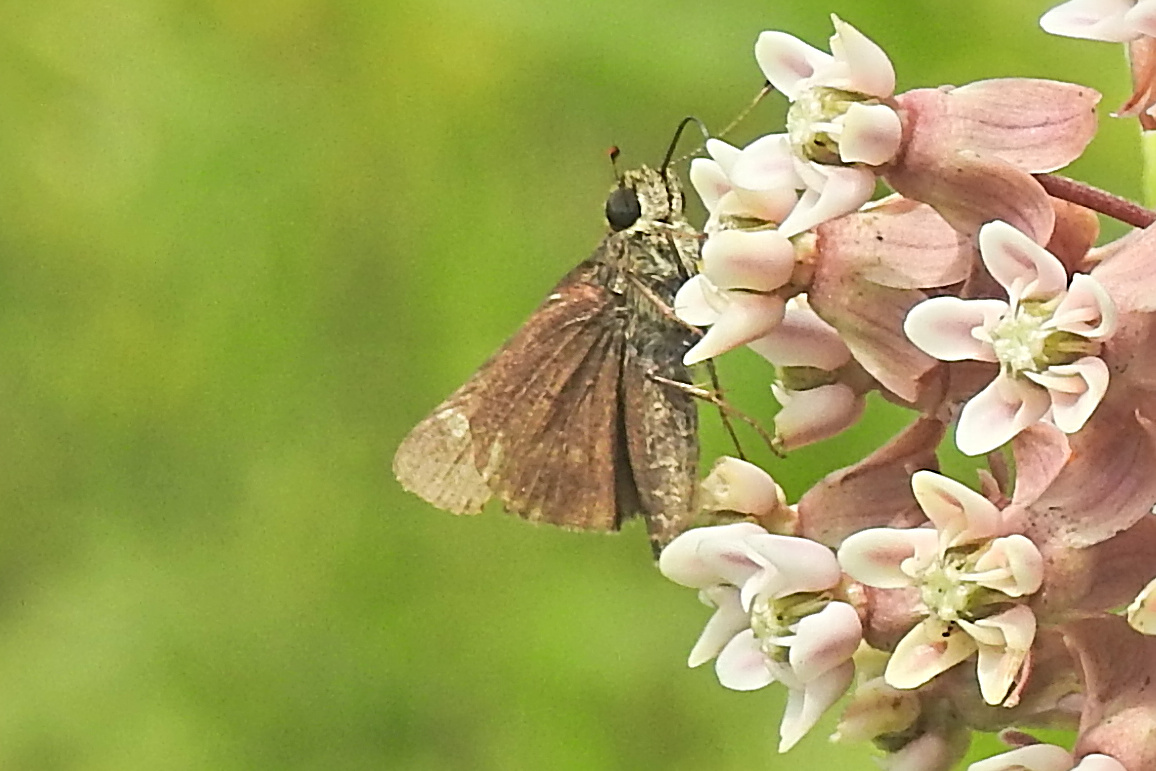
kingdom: Animalia
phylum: Arthropoda
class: Insecta
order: Lepidoptera
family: Hesperiidae
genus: Vernia
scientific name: Vernia verna
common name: Little glassywing
